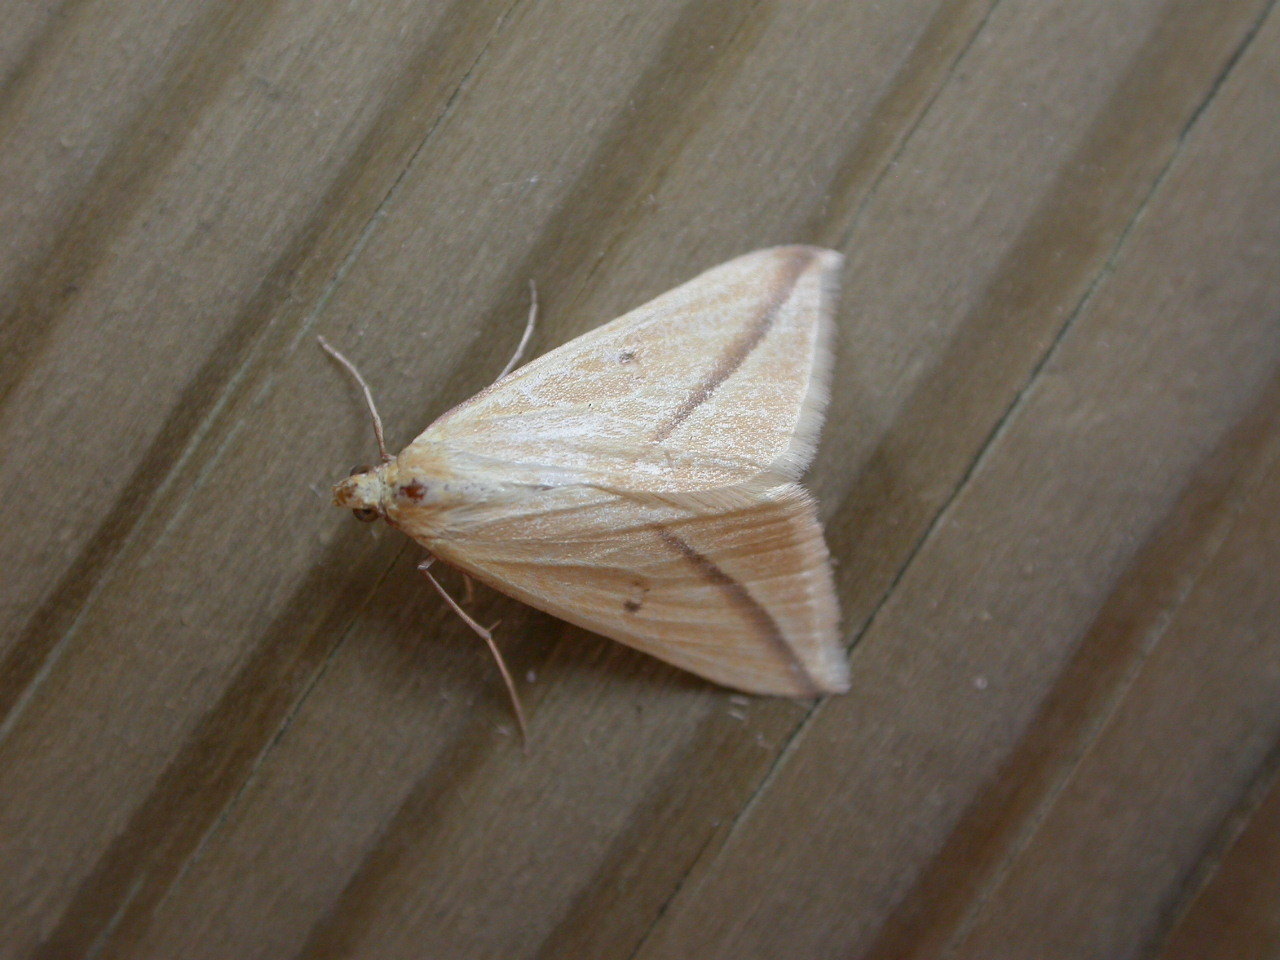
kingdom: Animalia
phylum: Arthropoda
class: Insecta
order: Lepidoptera
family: Geometridae
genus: Rhodometra
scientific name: Rhodometra sacraria
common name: Vestal
